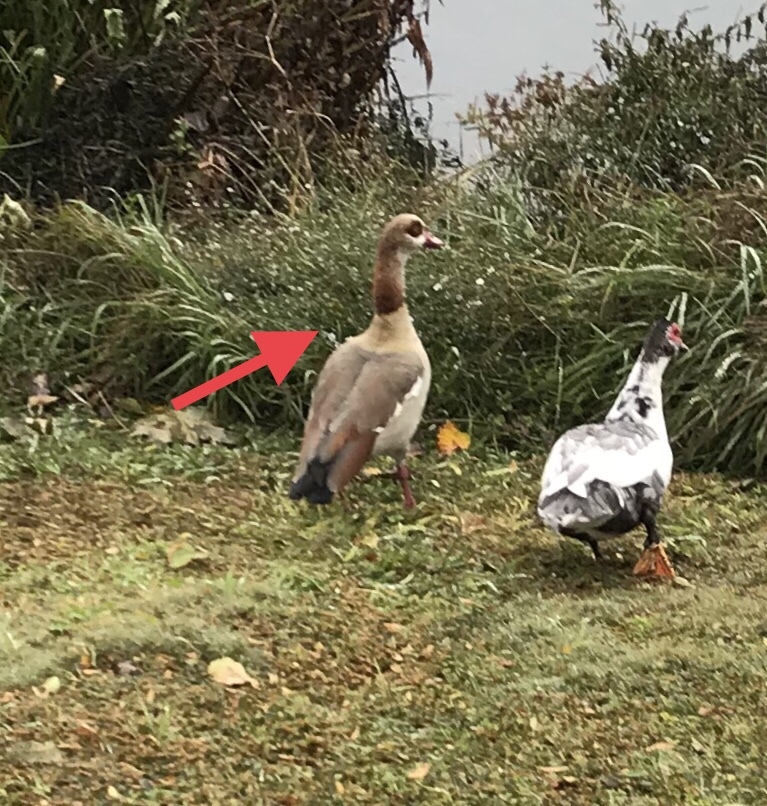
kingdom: Animalia
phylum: Chordata
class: Aves
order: Anseriformes
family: Anatidae
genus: Alopochen
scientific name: Alopochen aegyptiaca
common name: Egyptian goose
